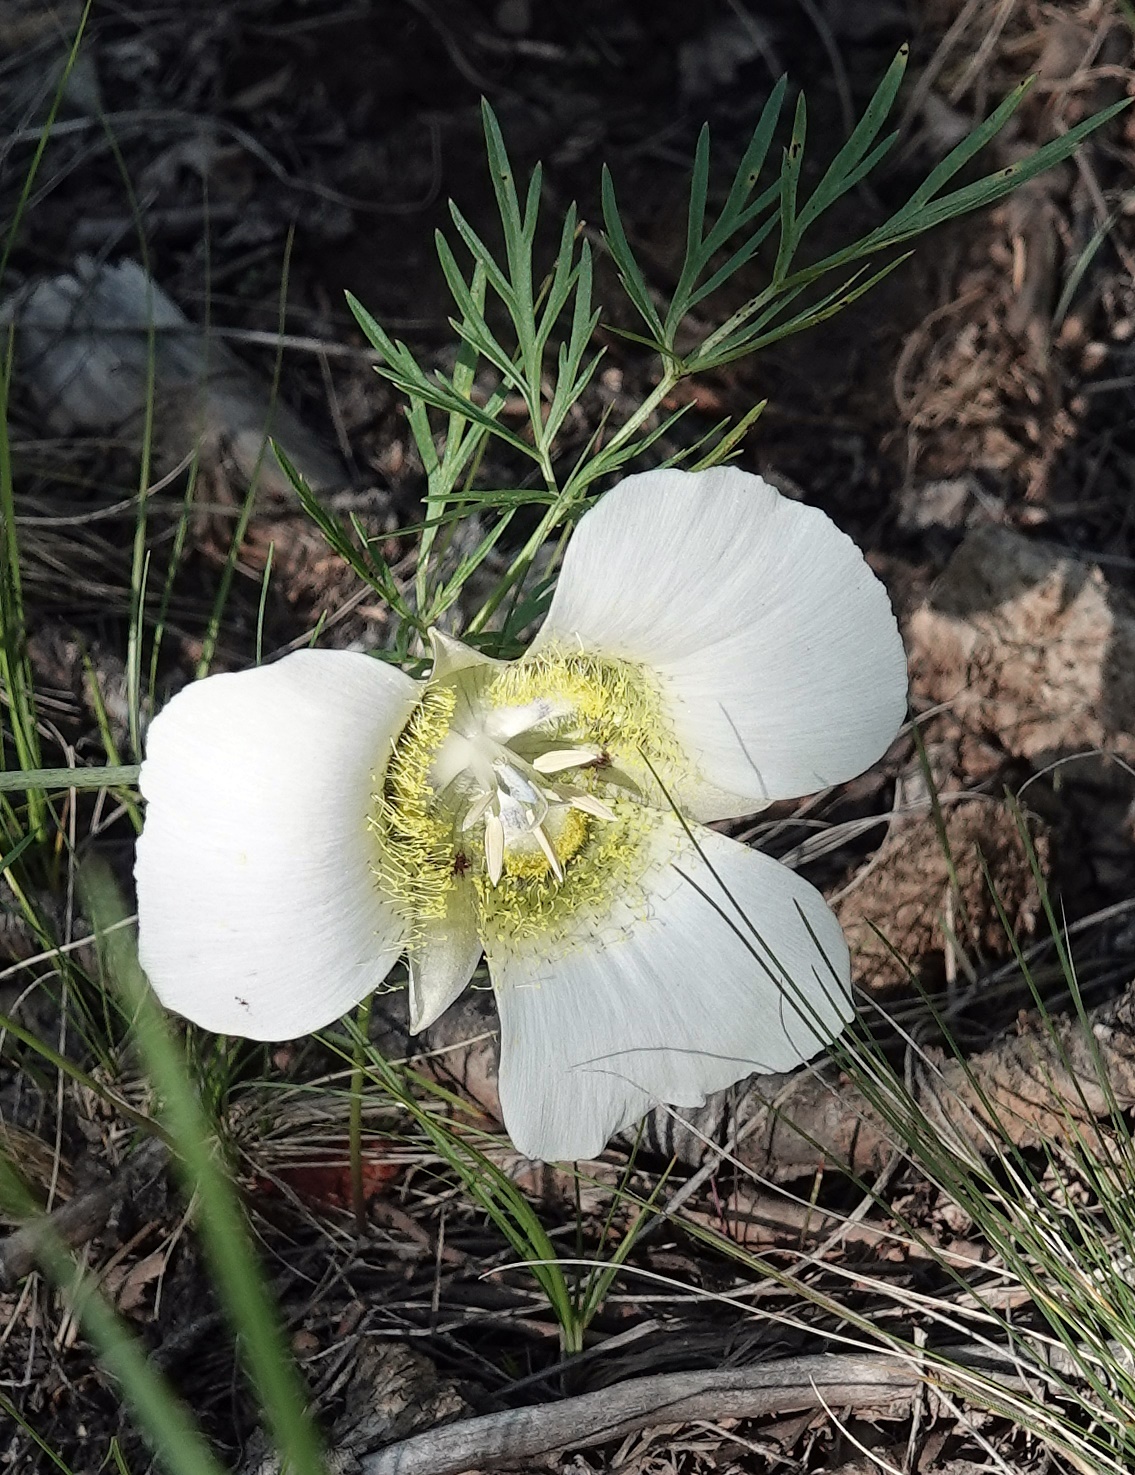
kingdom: Plantae
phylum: Tracheophyta
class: Liliopsida
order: Liliales
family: Liliaceae
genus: Calochortus
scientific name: Calochortus gunnisonii
